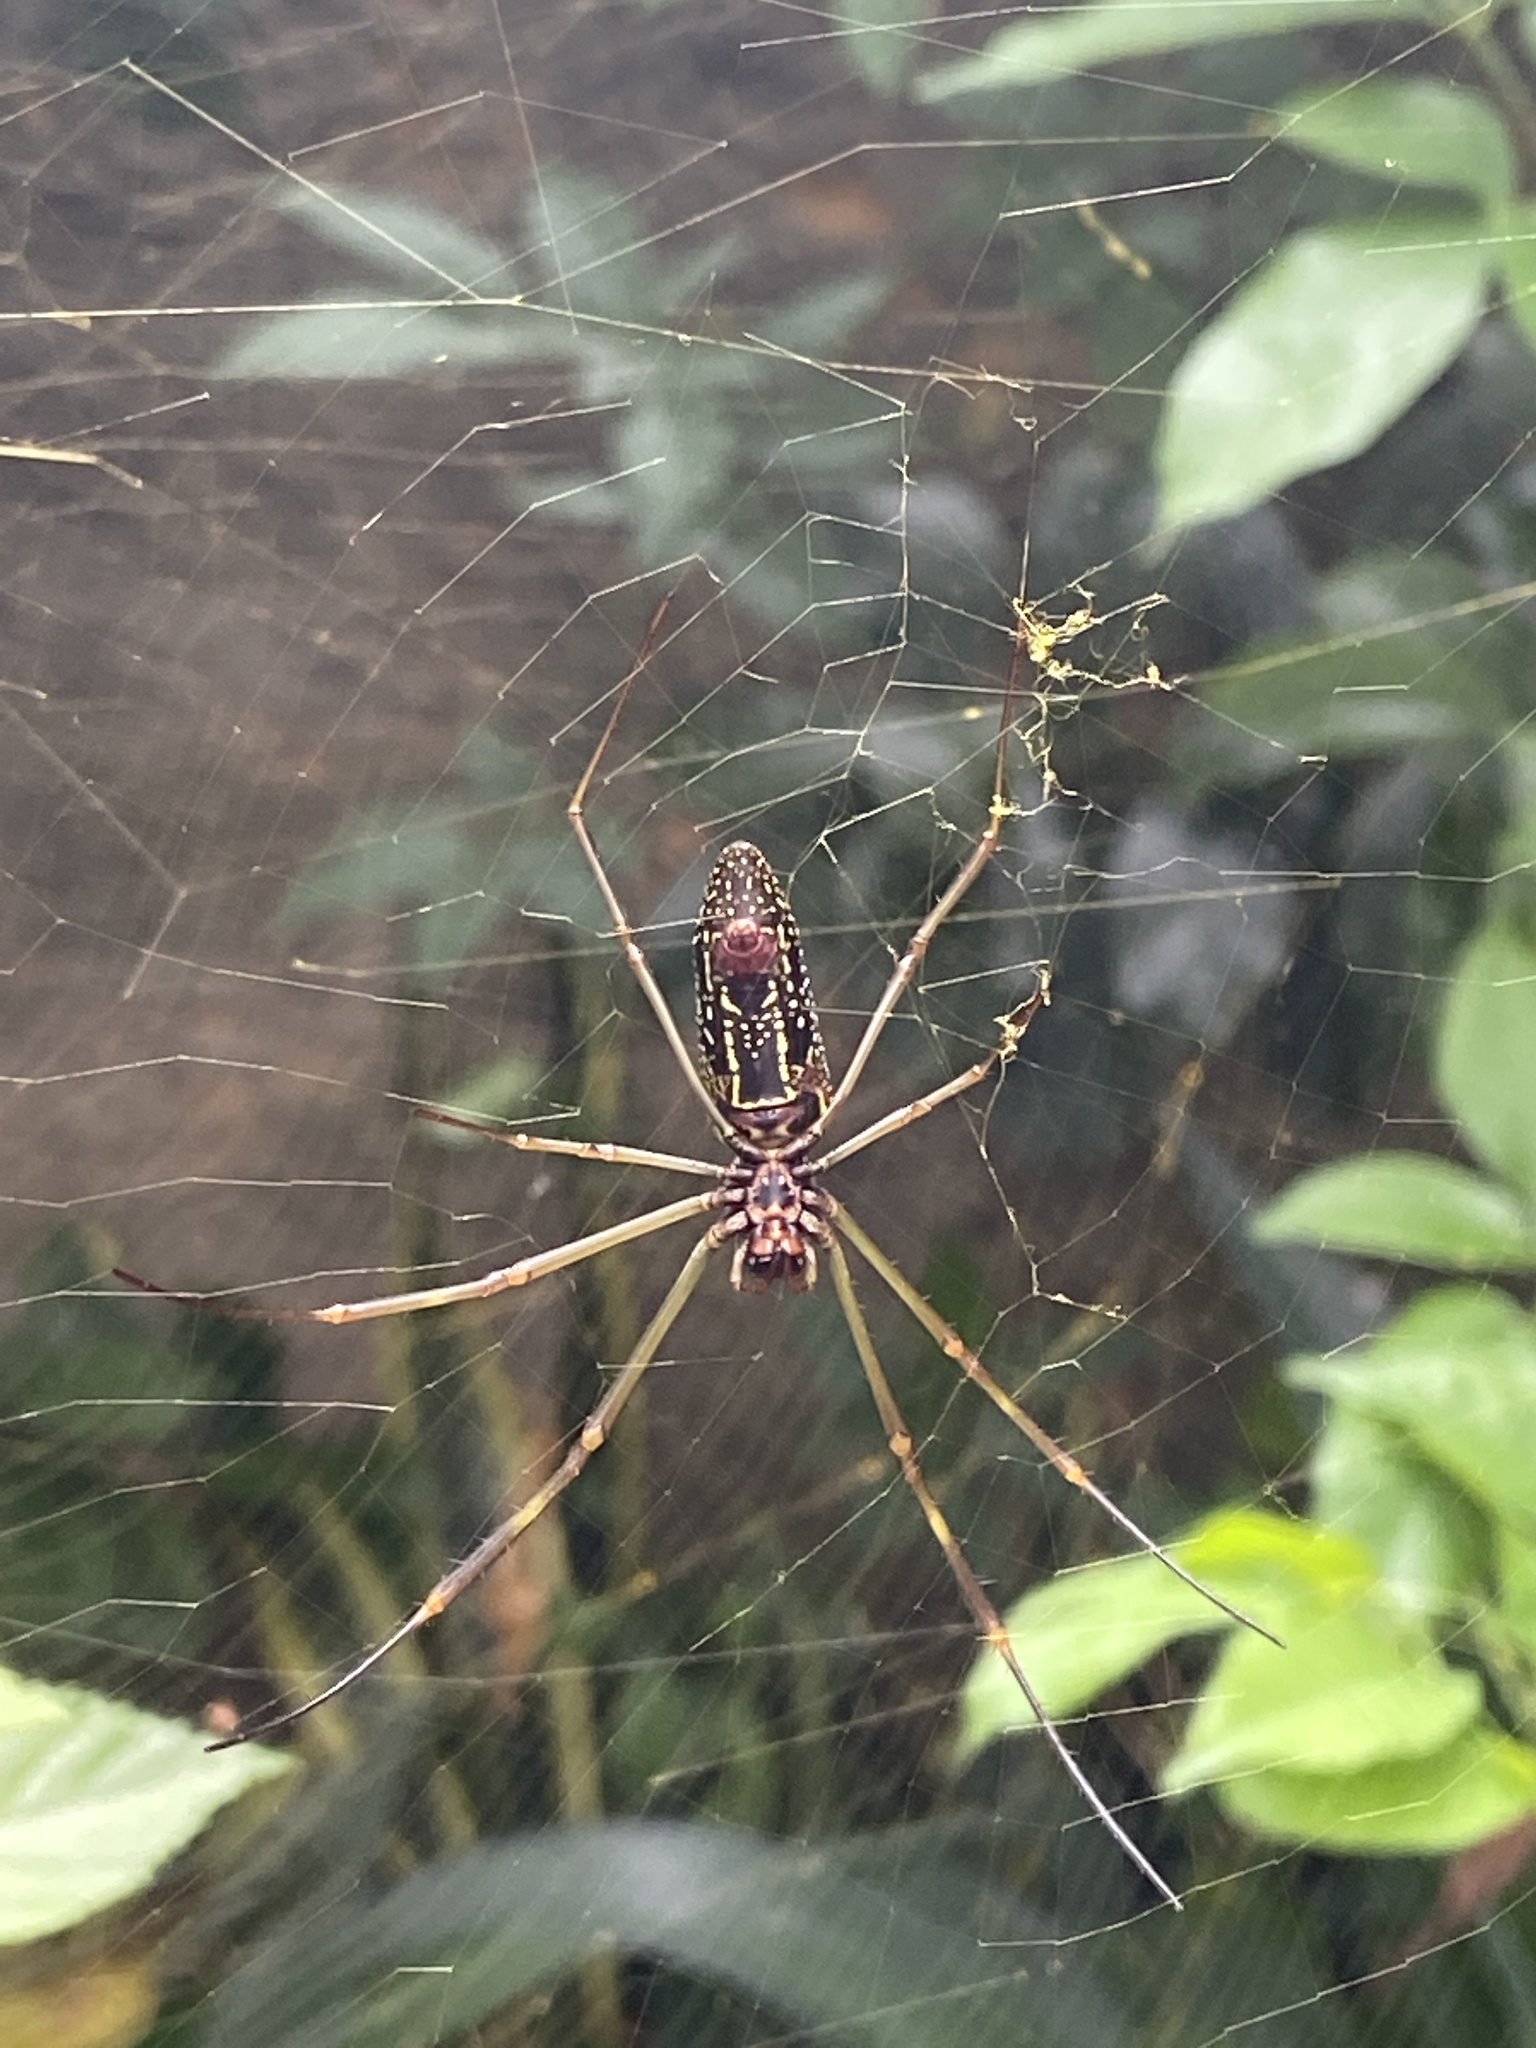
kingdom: Animalia
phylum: Arthropoda
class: Arachnida
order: Araneae
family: Araneidae
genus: Trichonephila
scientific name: Trichonephila clavipes
